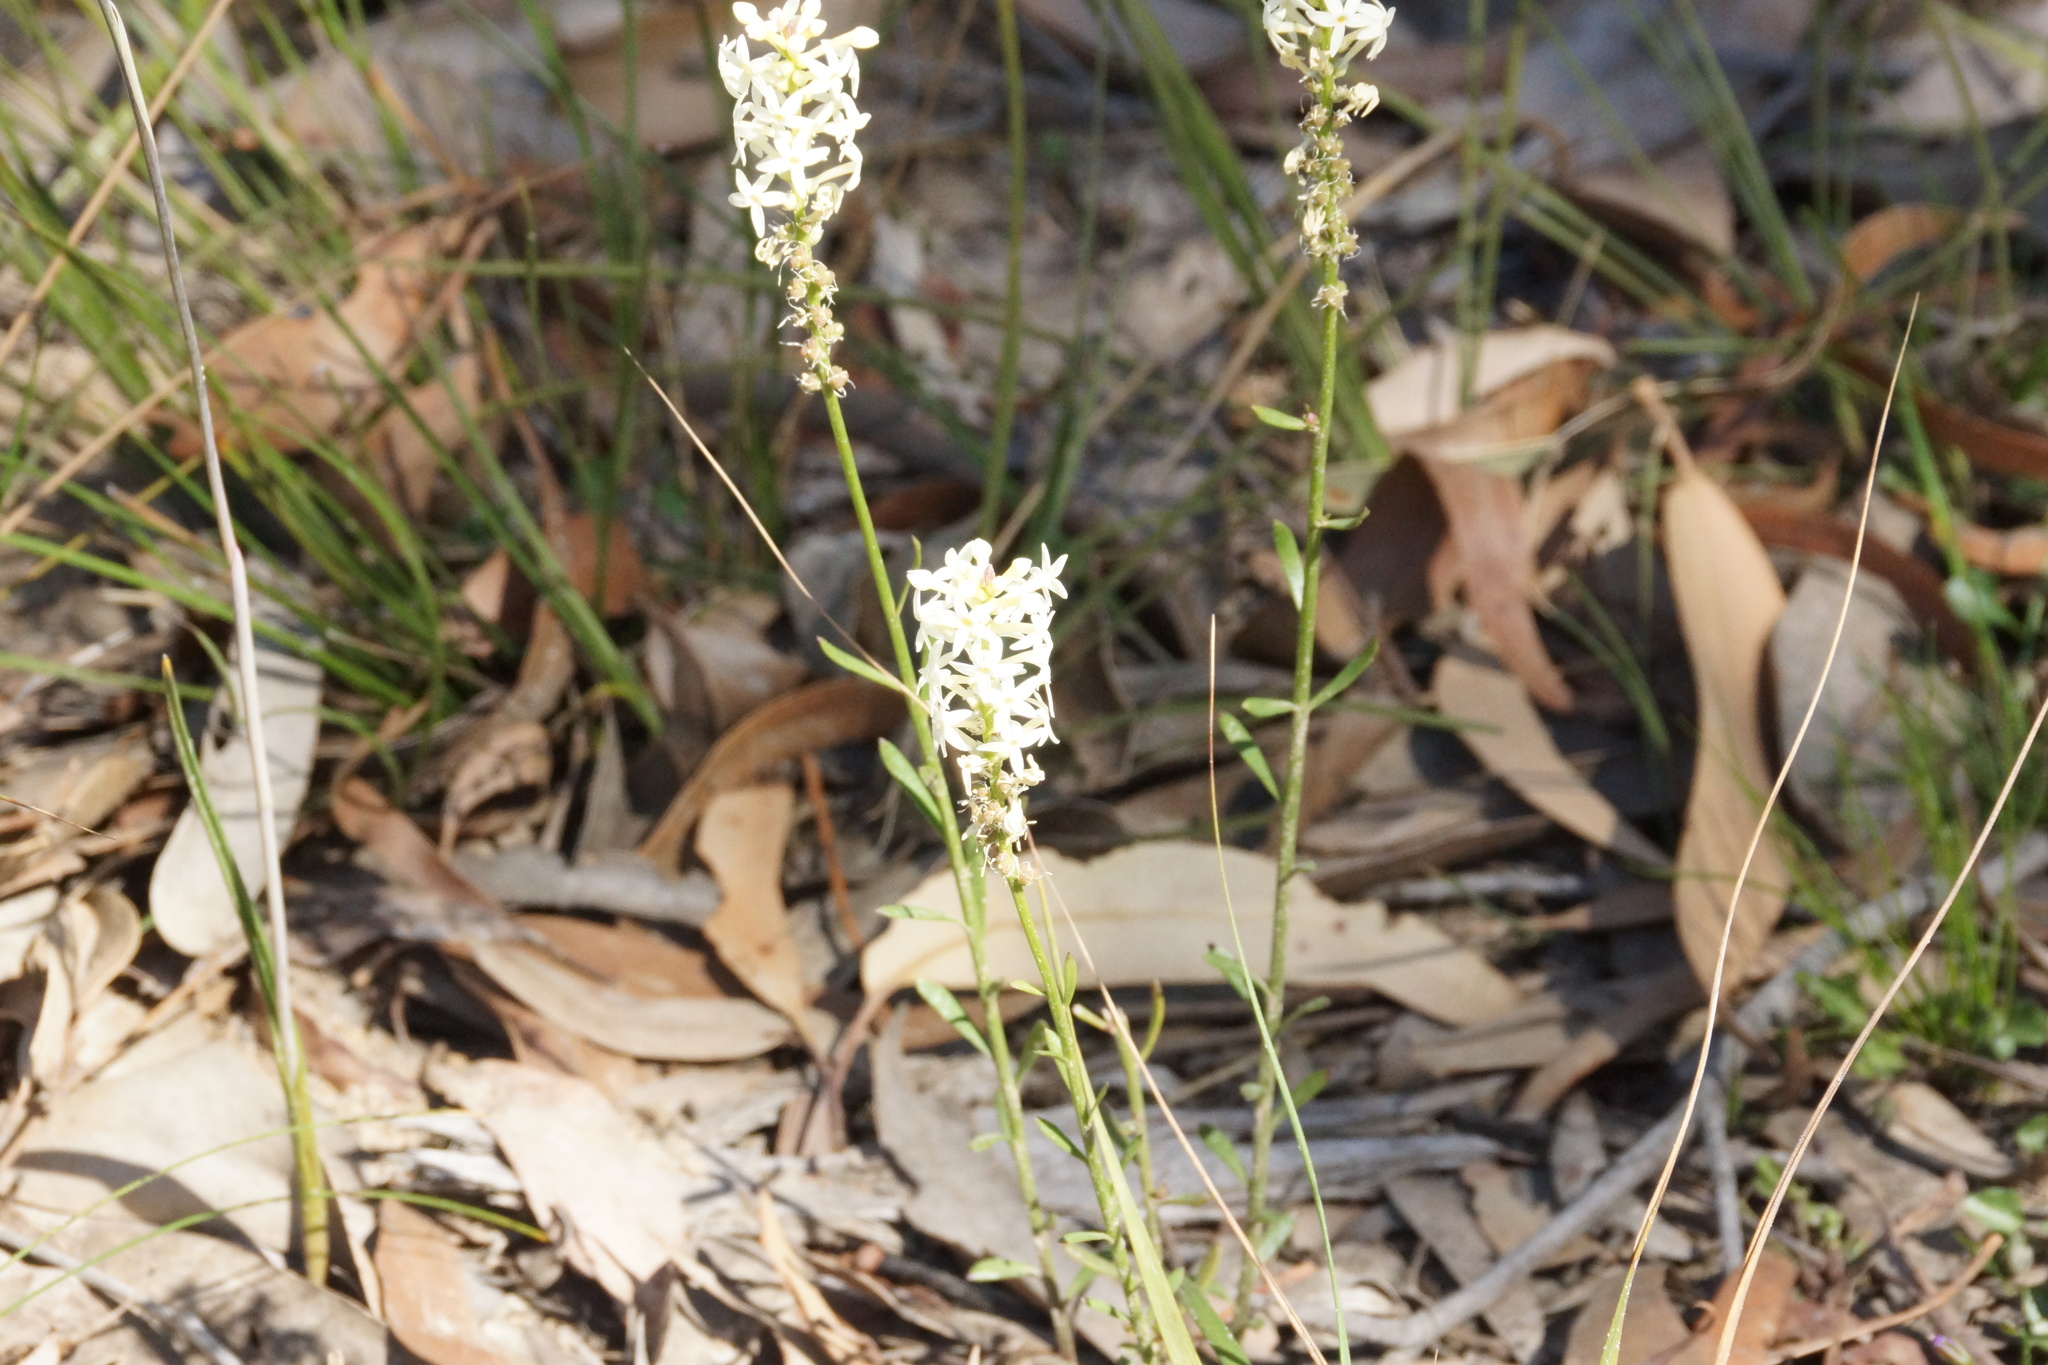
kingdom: Plantae
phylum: Tracheophyta
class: Magnoliopsida
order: Celastrales
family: Celastraceae
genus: Stackhousia
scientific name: Stackhousia monogyna
